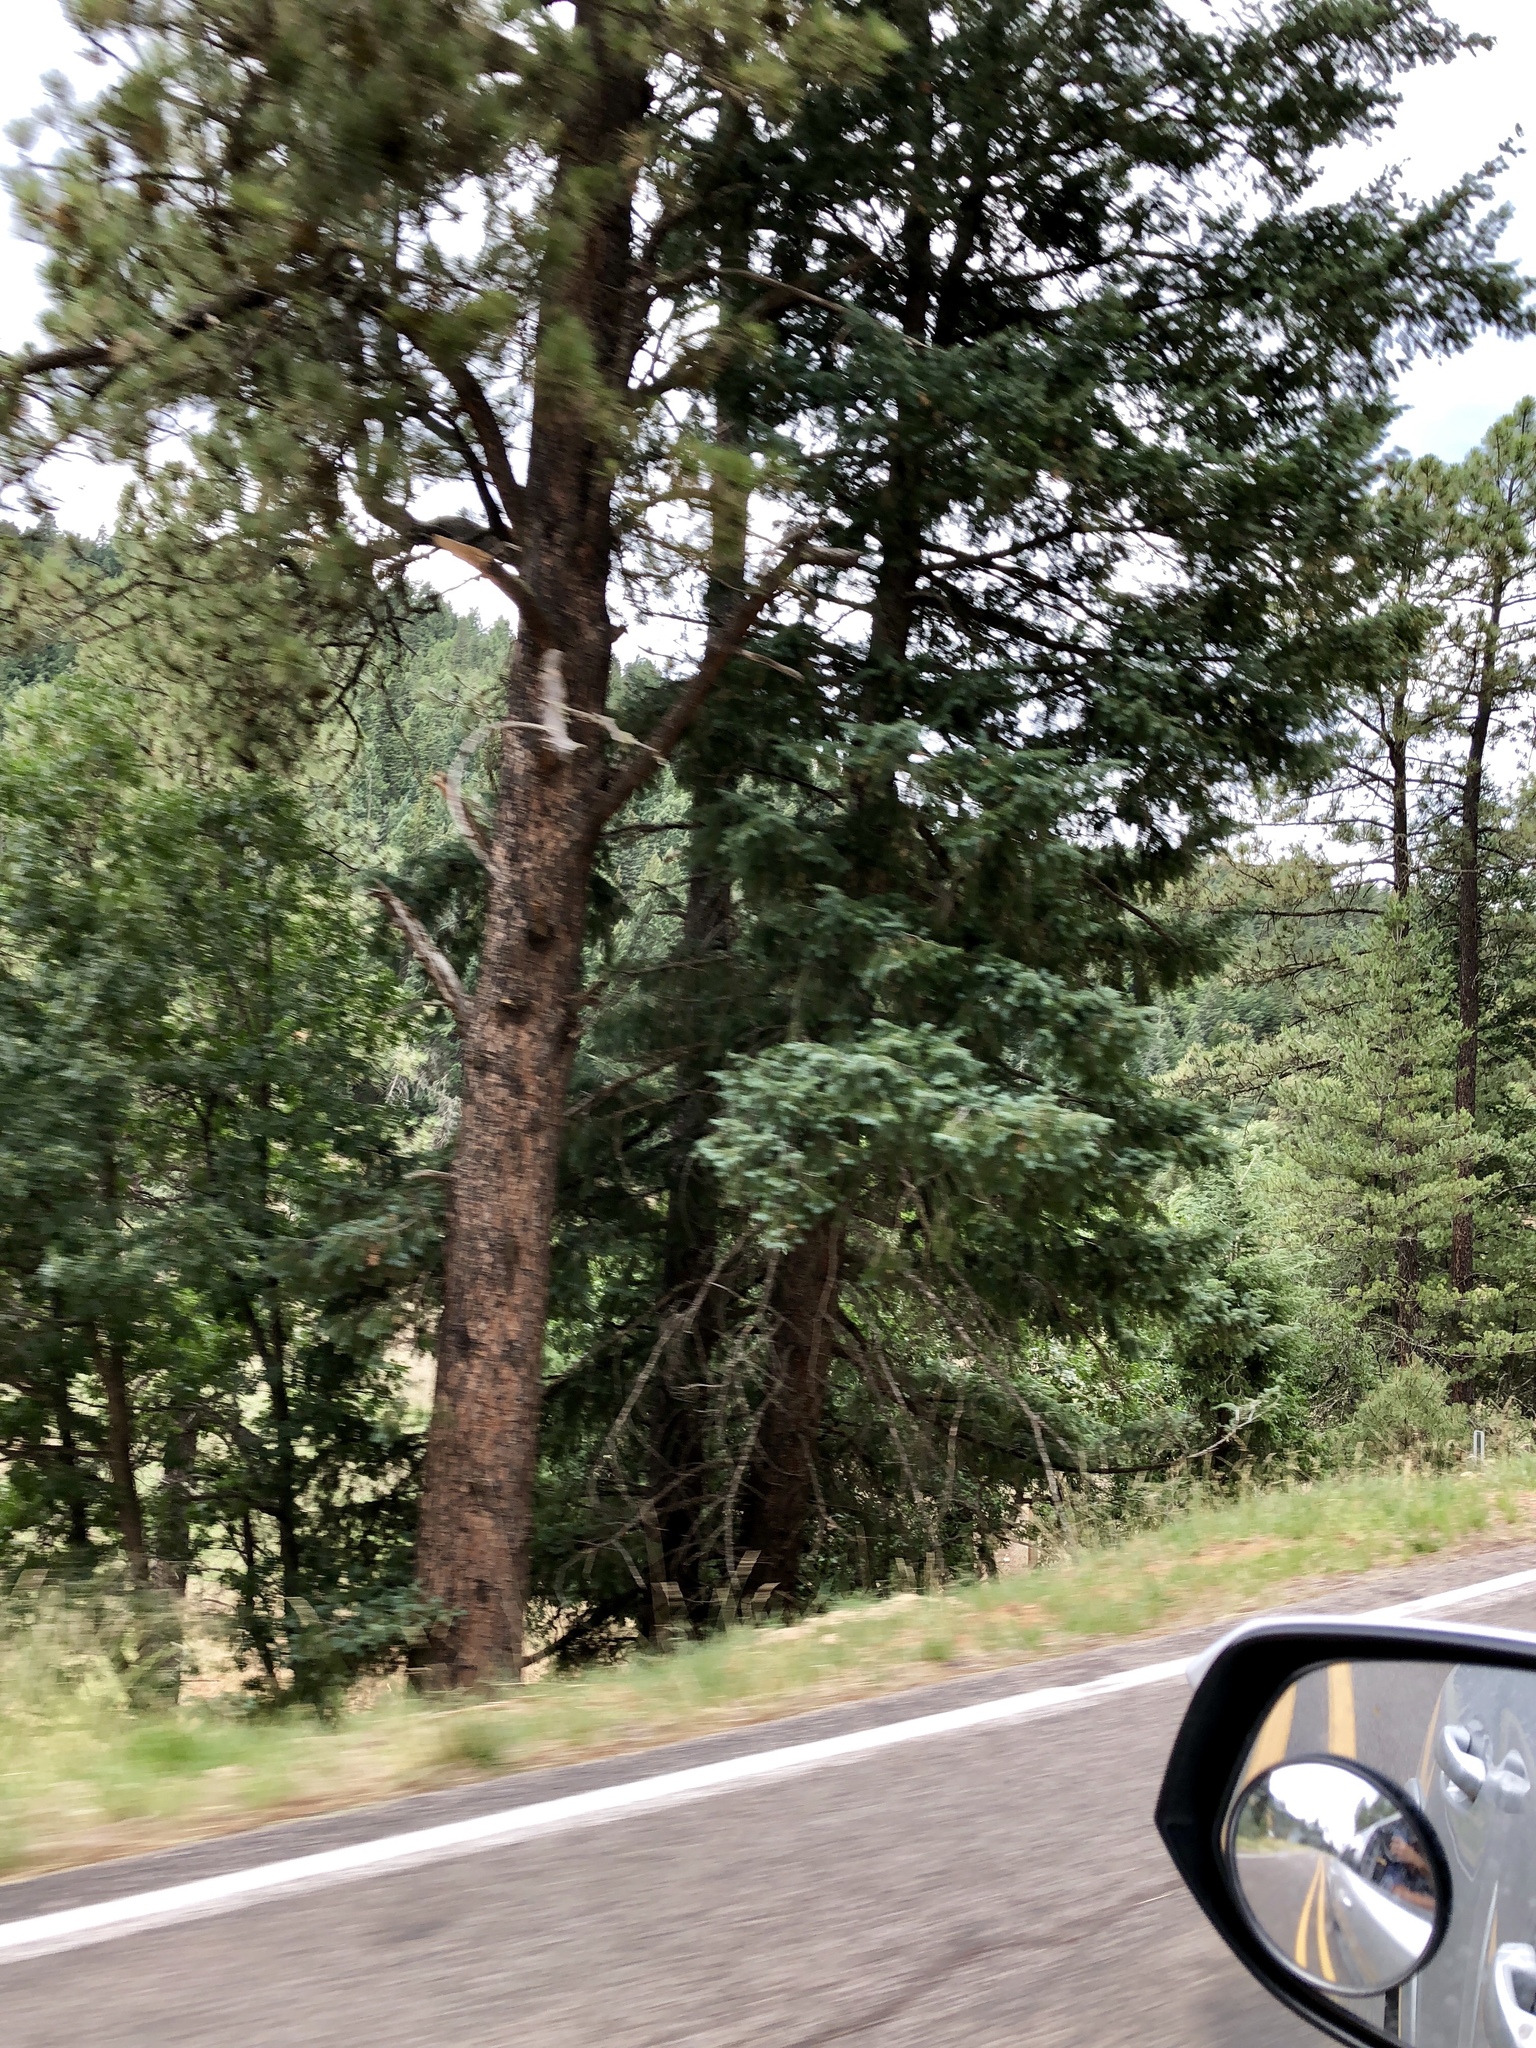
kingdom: Plantae
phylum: Tracheophyta
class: Pinopsida
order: Pinales
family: Pinaceae
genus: Pinus
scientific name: Pinus ponderosa
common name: Western yellow-pine
